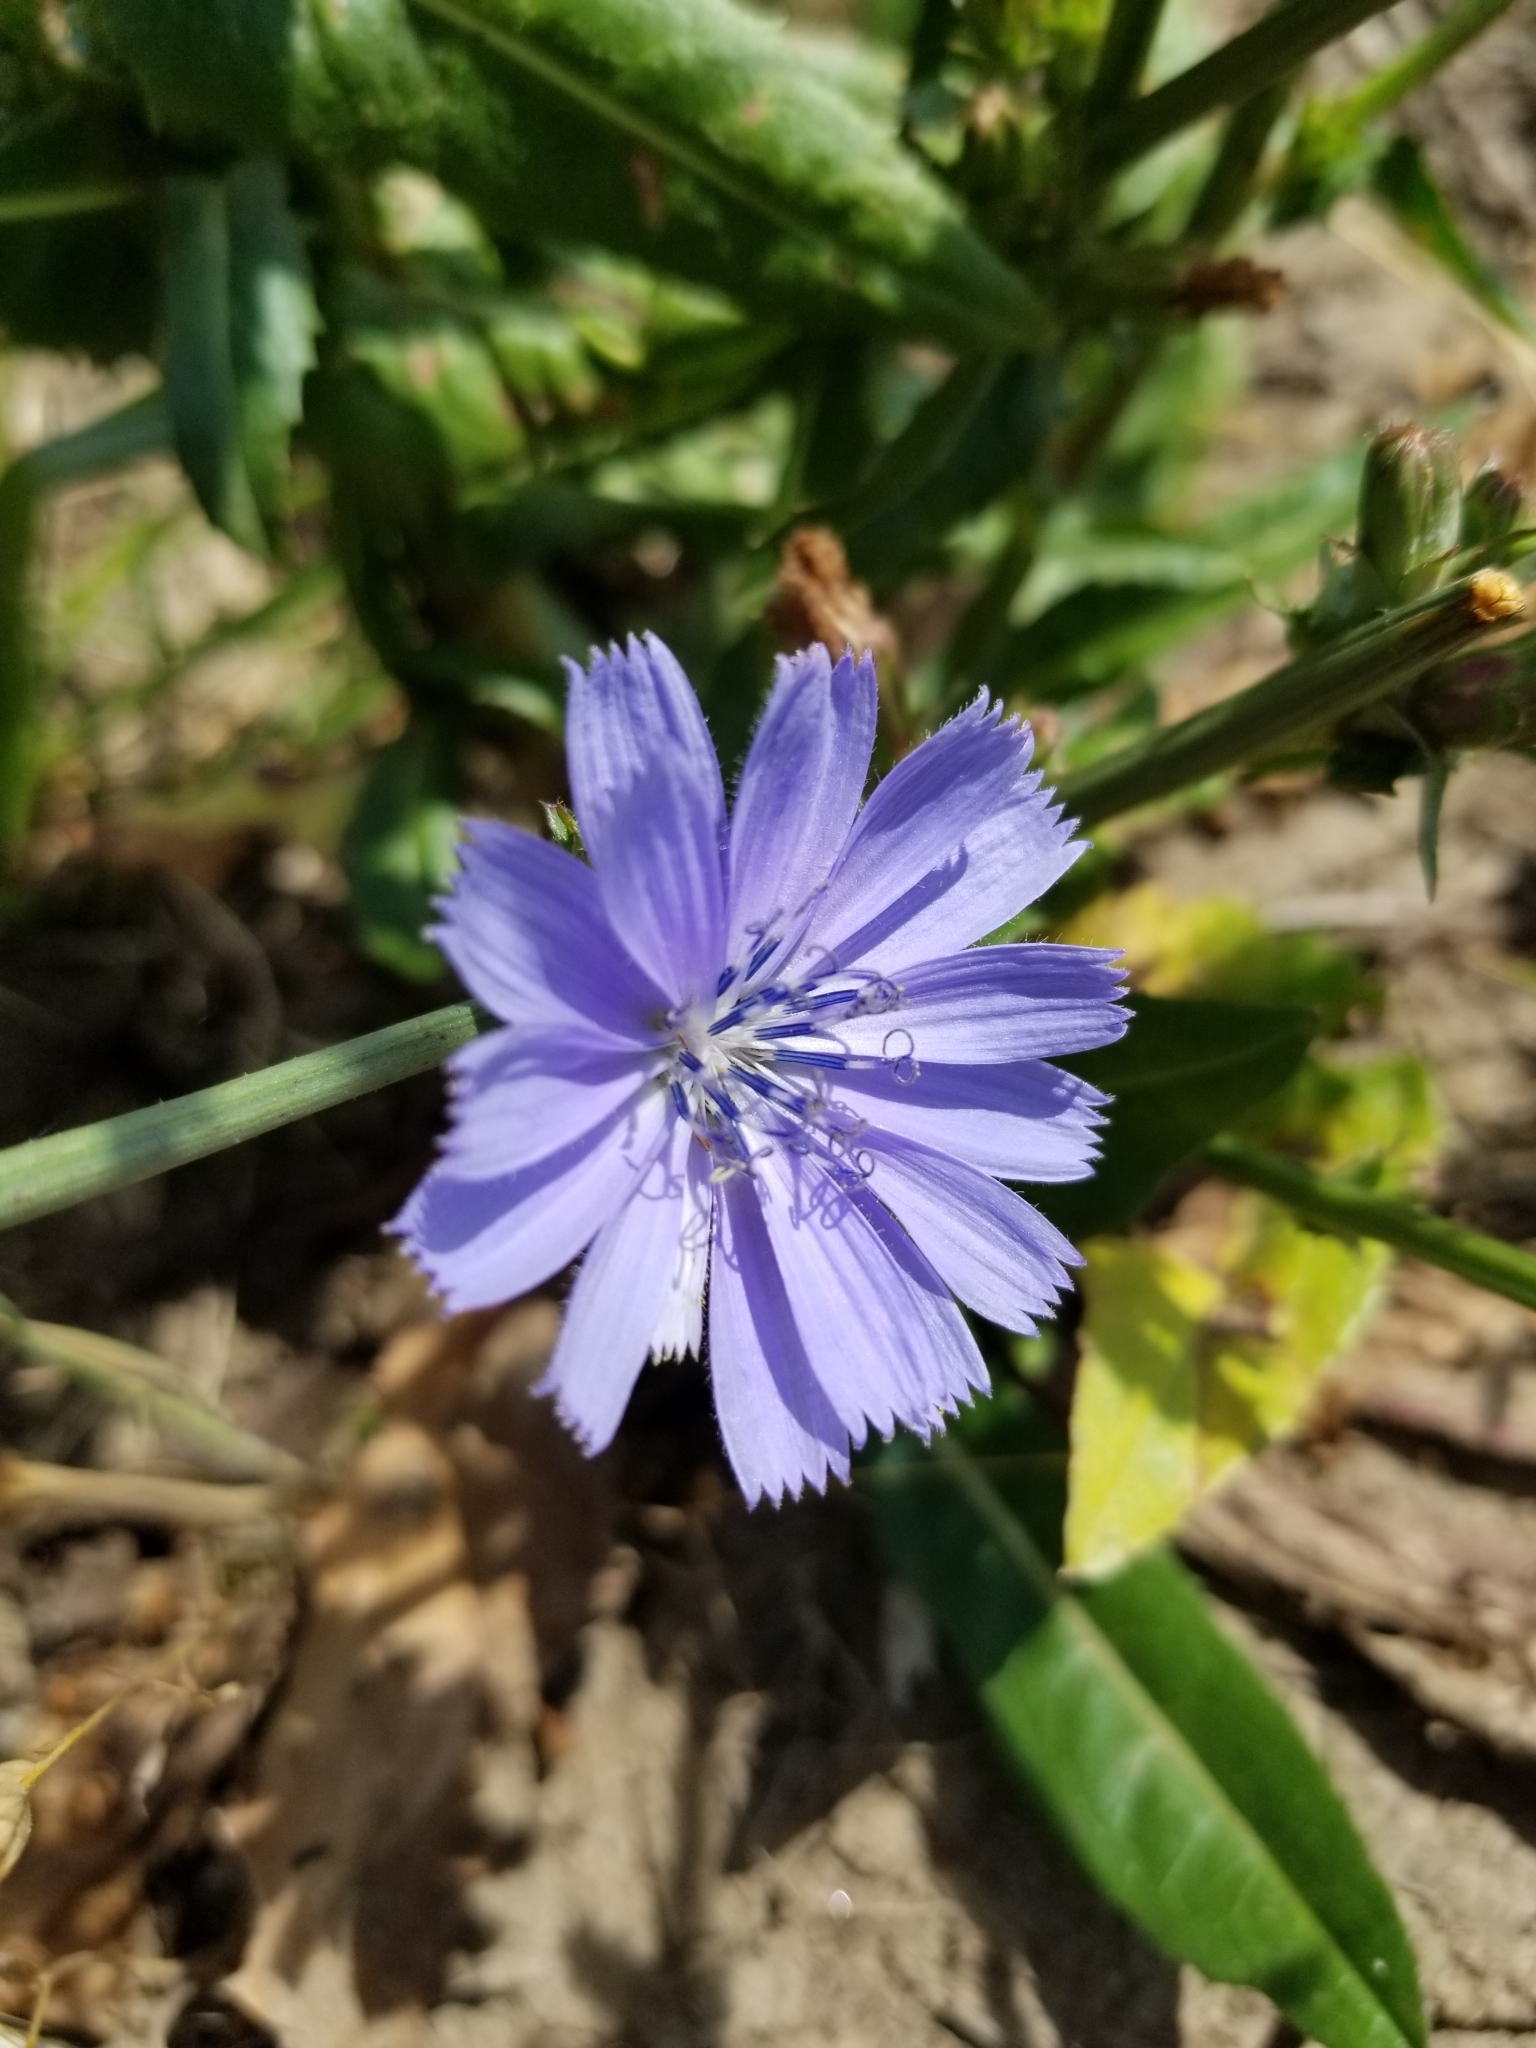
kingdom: Plantae
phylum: Tracheophyta
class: Magnoliopsida
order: Asterales
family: Asteraceae
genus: Cichorium
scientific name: Cichorium intybus
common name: Chicory
